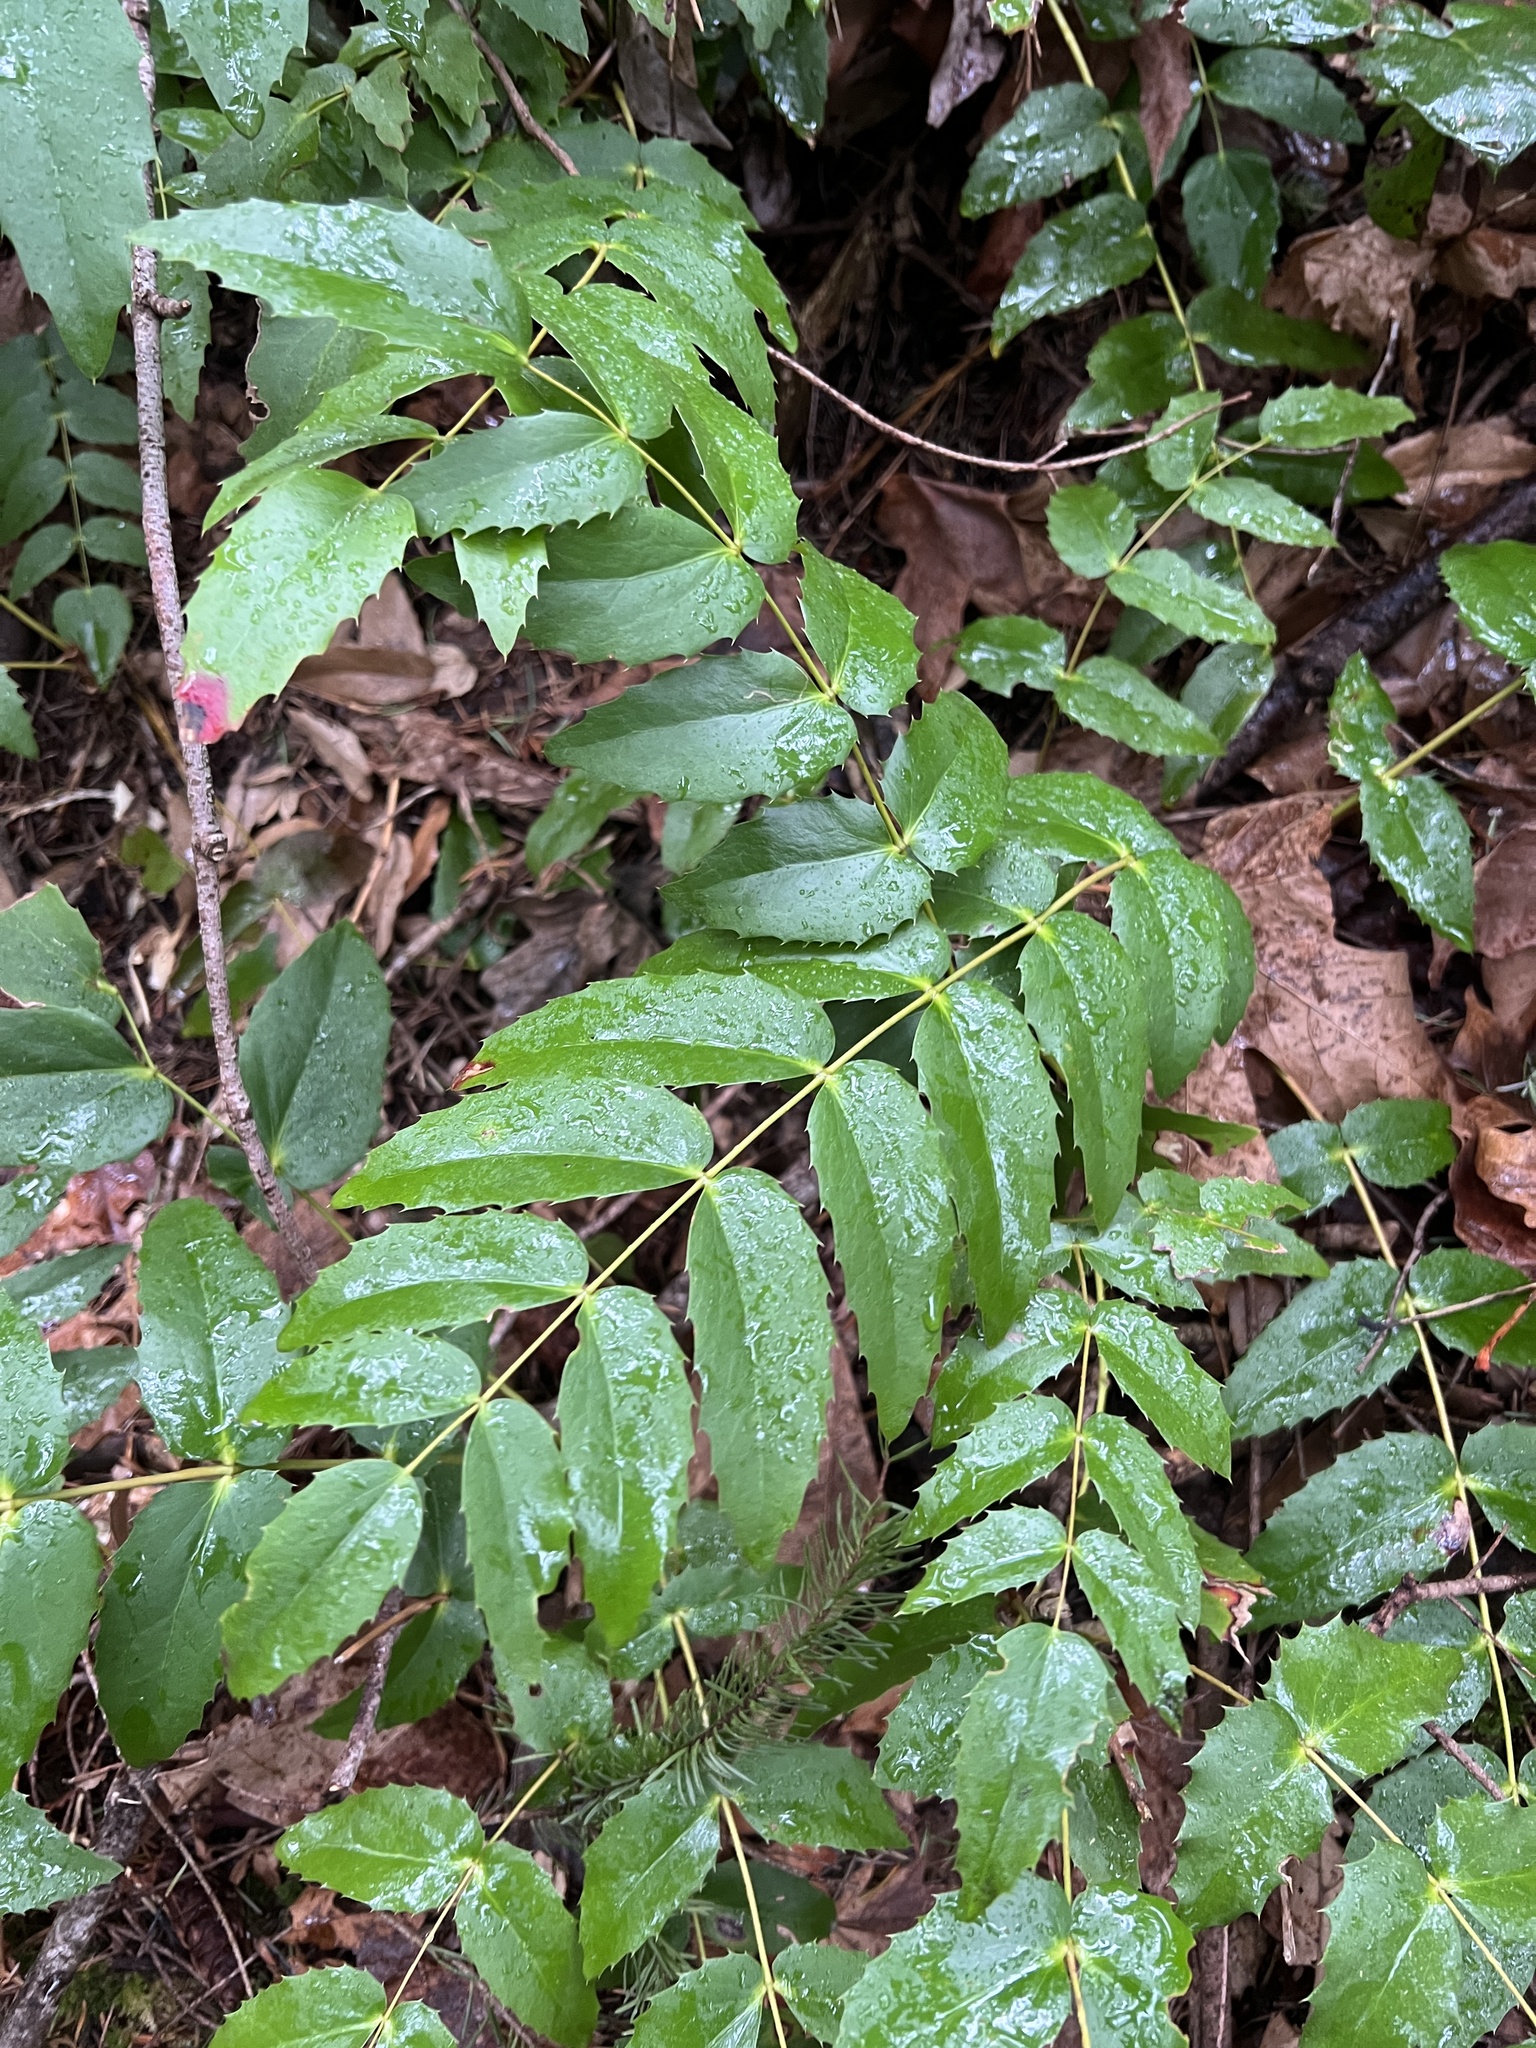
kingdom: Plantae
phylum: Tracheophyta
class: Magnoliopsida
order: Ranunculales
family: Berberidaceae
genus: Mahonia
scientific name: Mahonia nervosa
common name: Cascade oregon-grape
